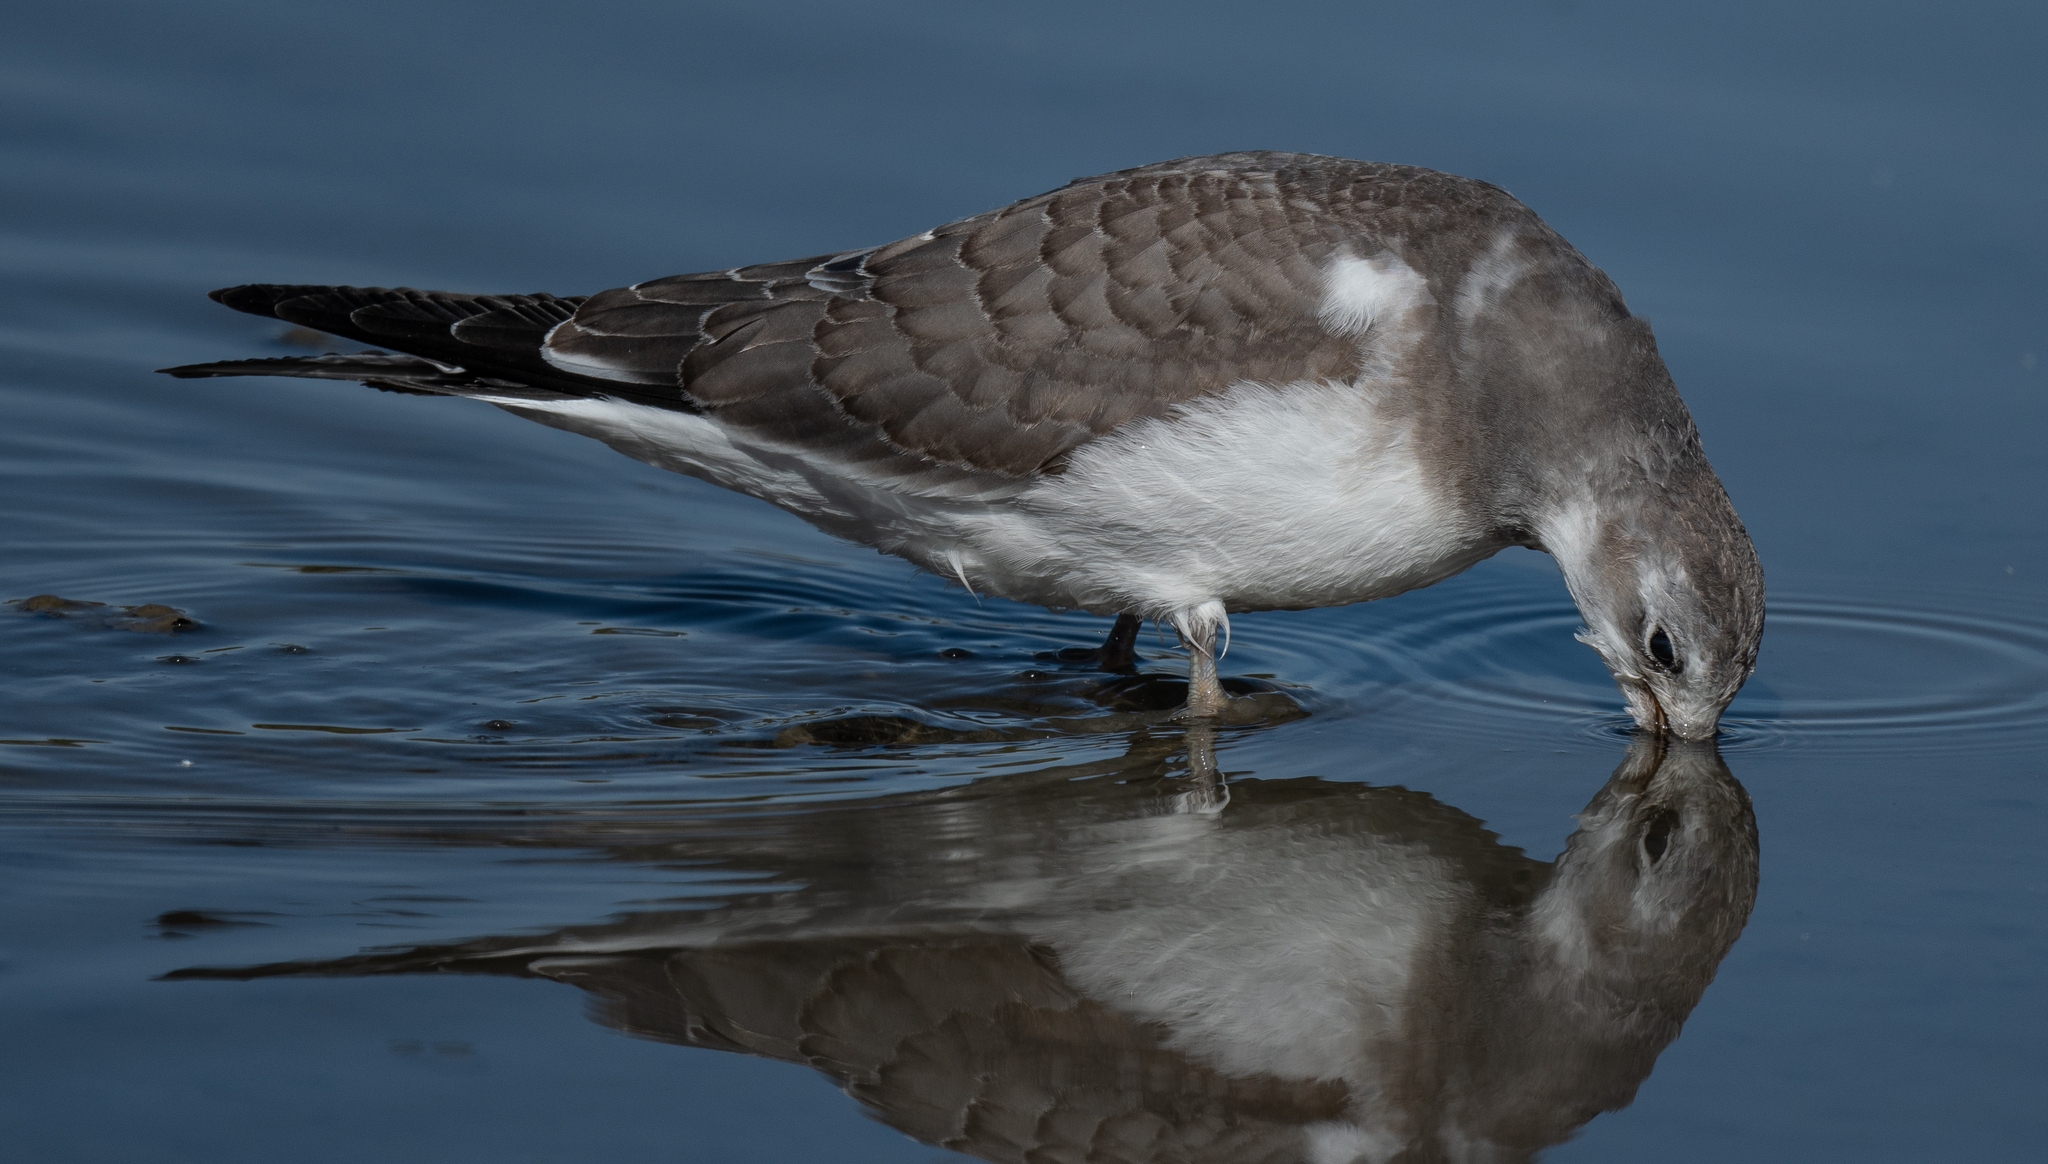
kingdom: Animalia
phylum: Chordata
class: Aves
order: Charadriiformes
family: Laridae
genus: Xema
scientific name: Xema sabini
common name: Sabine's gull
